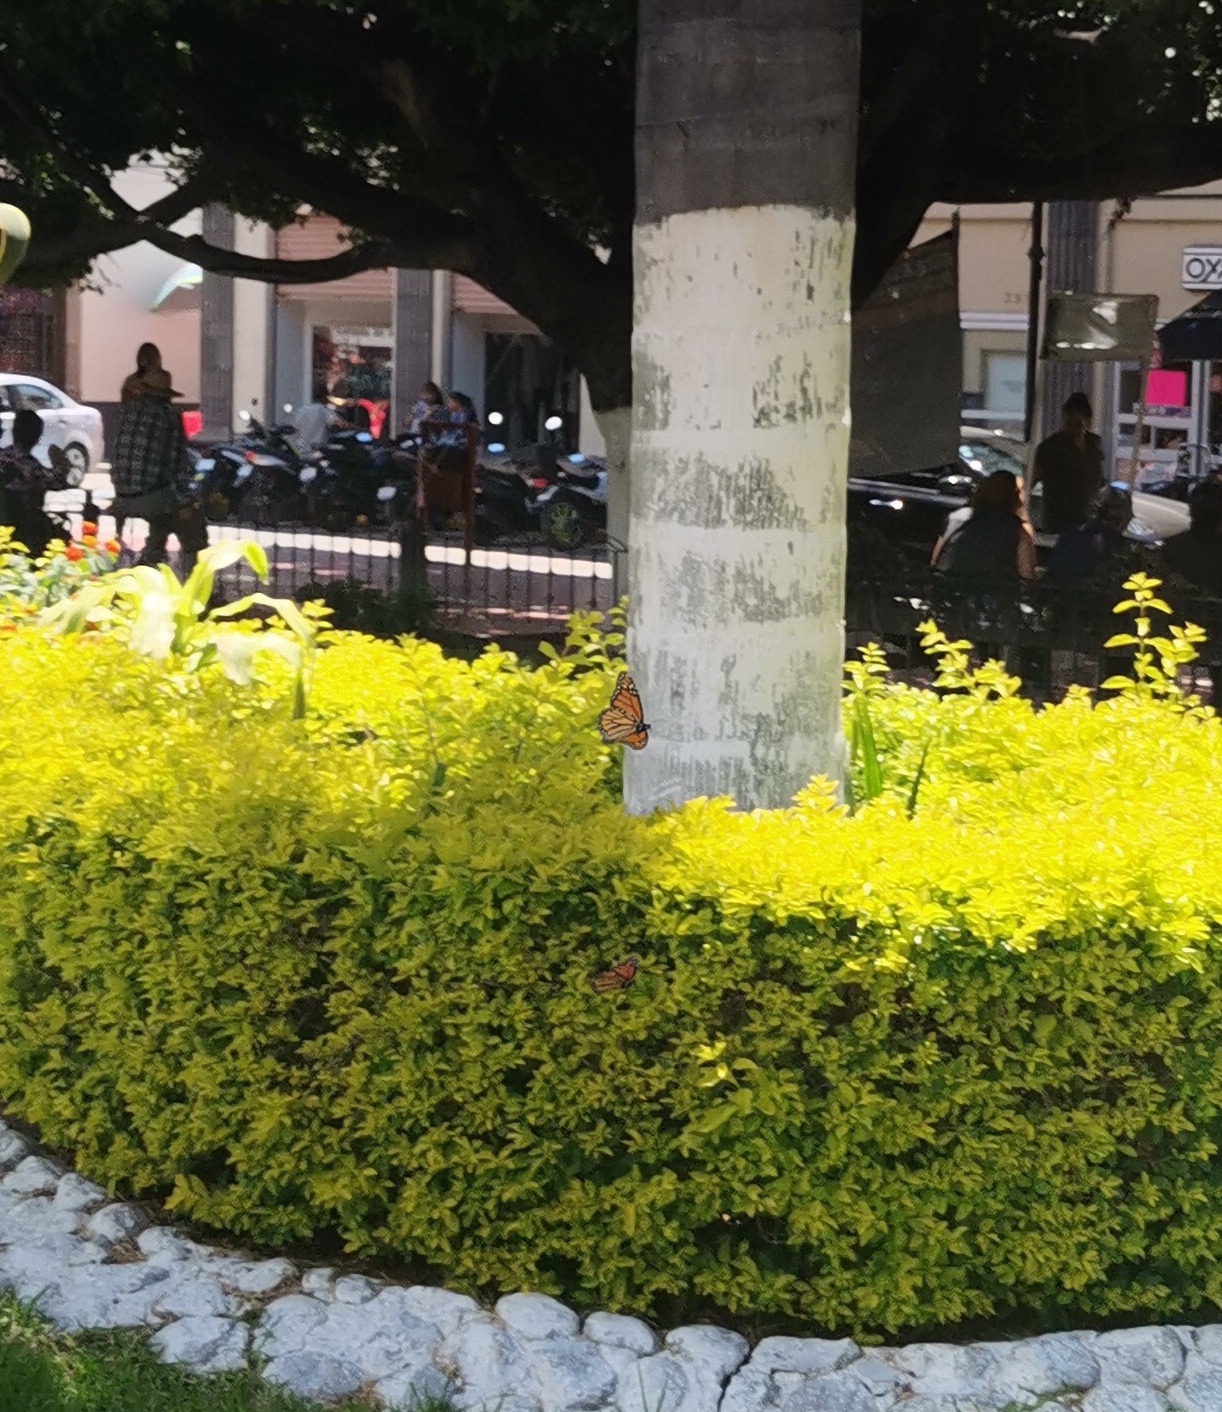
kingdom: Animalia
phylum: Arthropoda
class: Insecta
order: Lepidoptera
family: Nymphalidae
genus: Danaus
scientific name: Danaus plexippus
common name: Monarch
